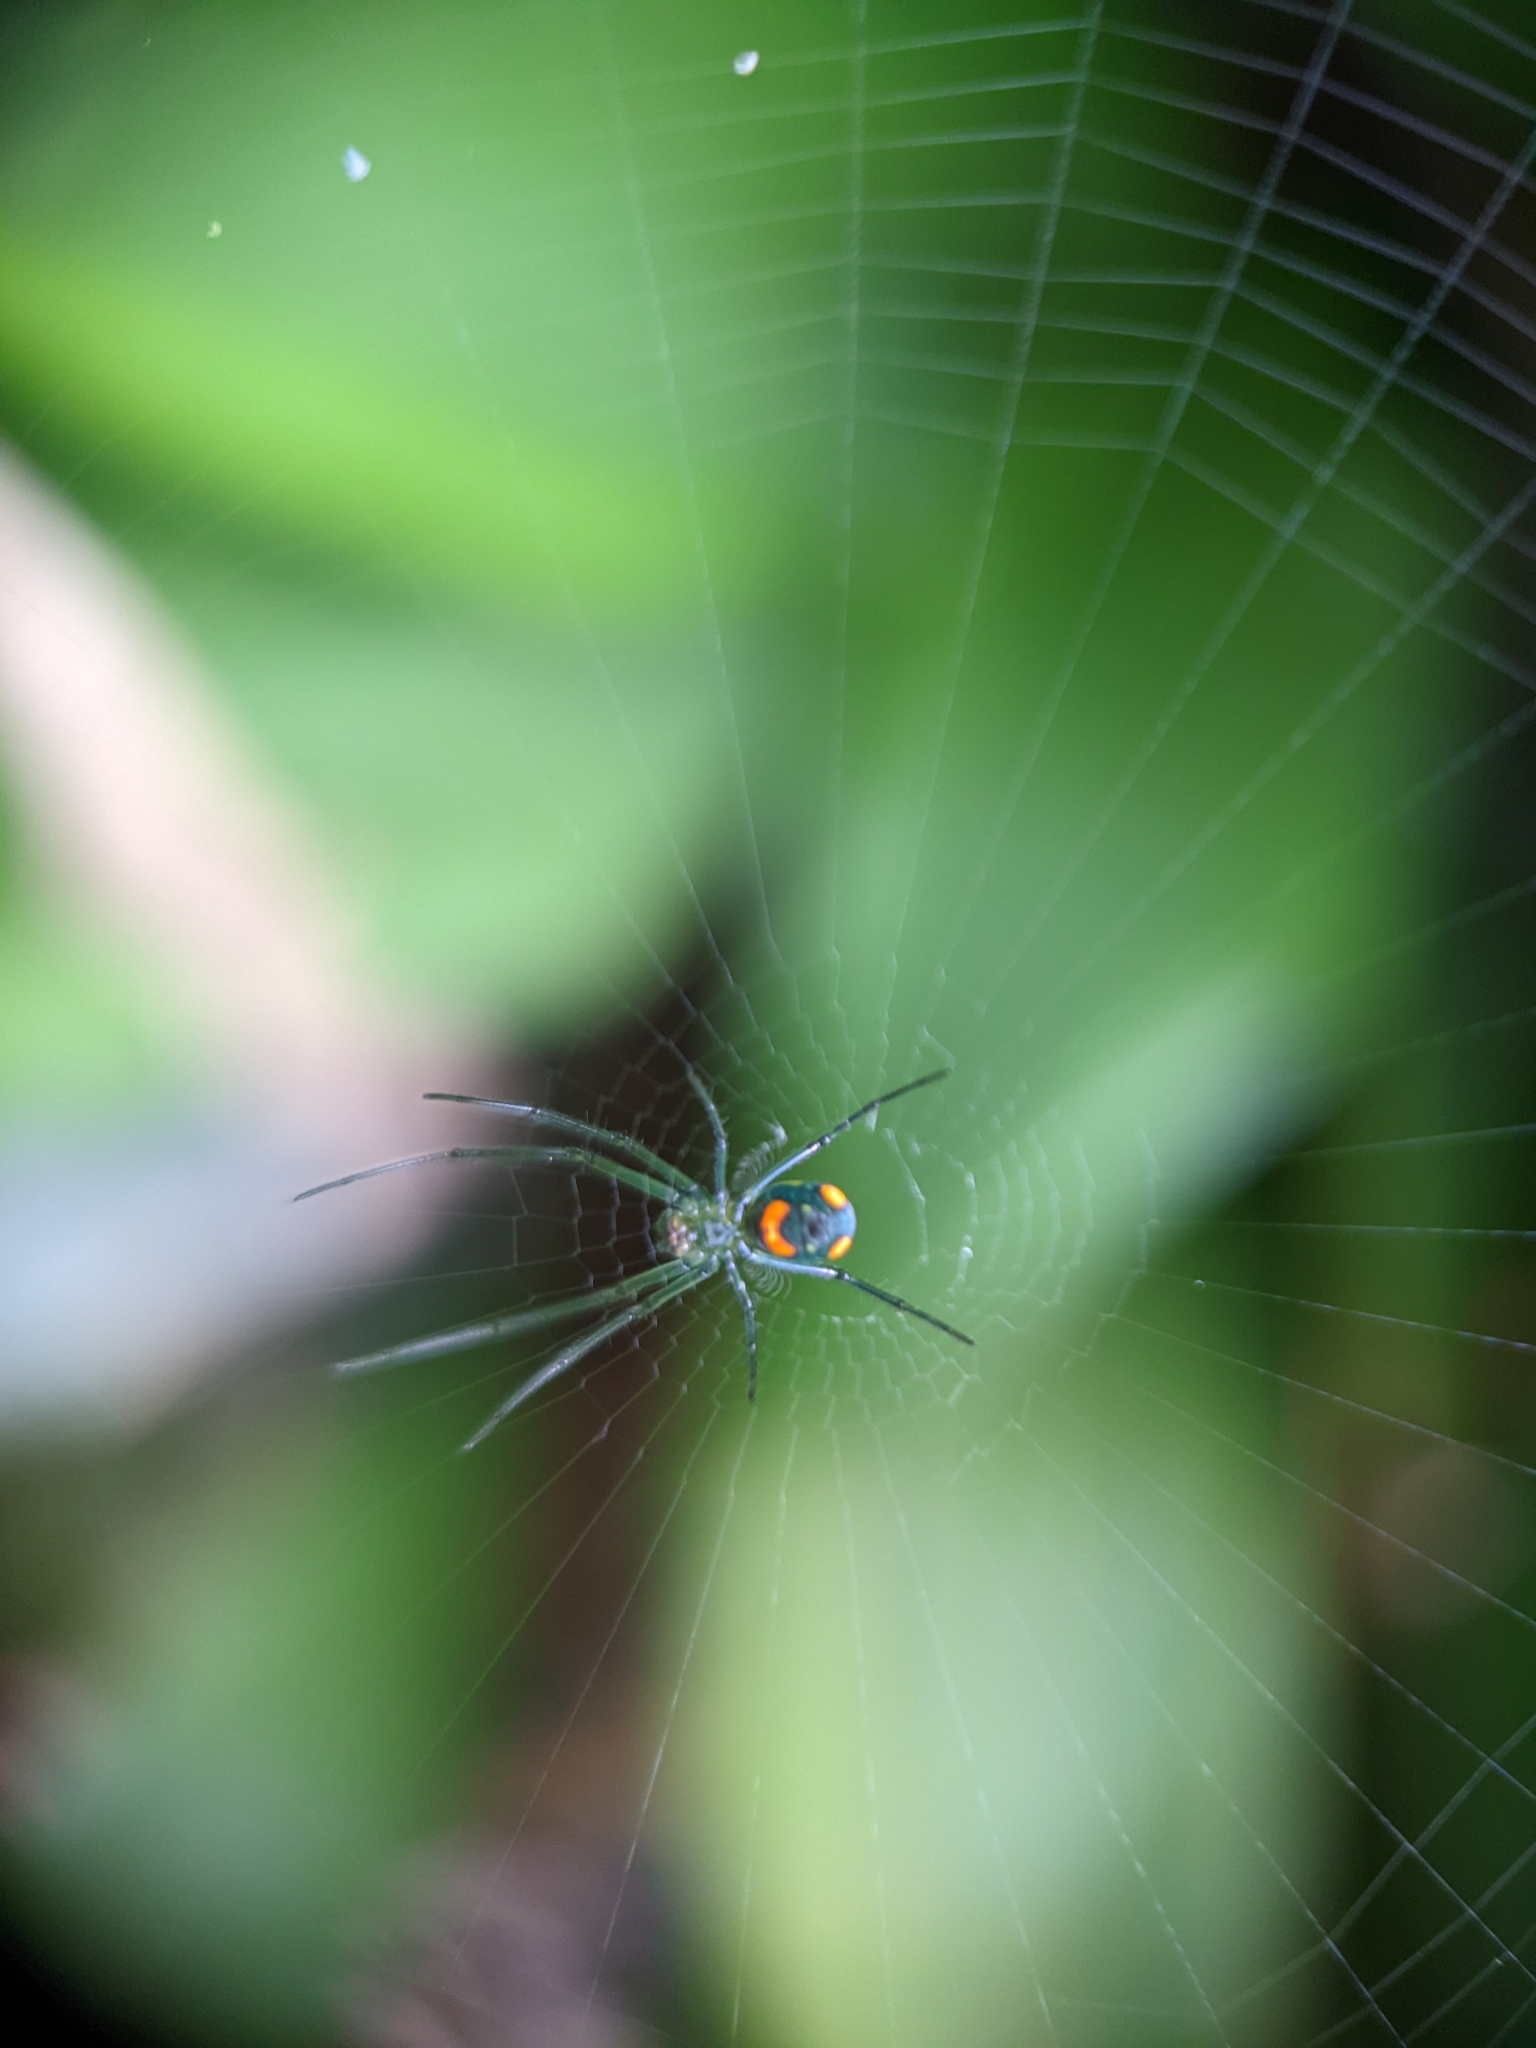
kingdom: Animalia
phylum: Arthropoda
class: Arachnida
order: Araneae
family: Tetragnathidae
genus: Leucauge
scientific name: Leucauge argyrobapta
